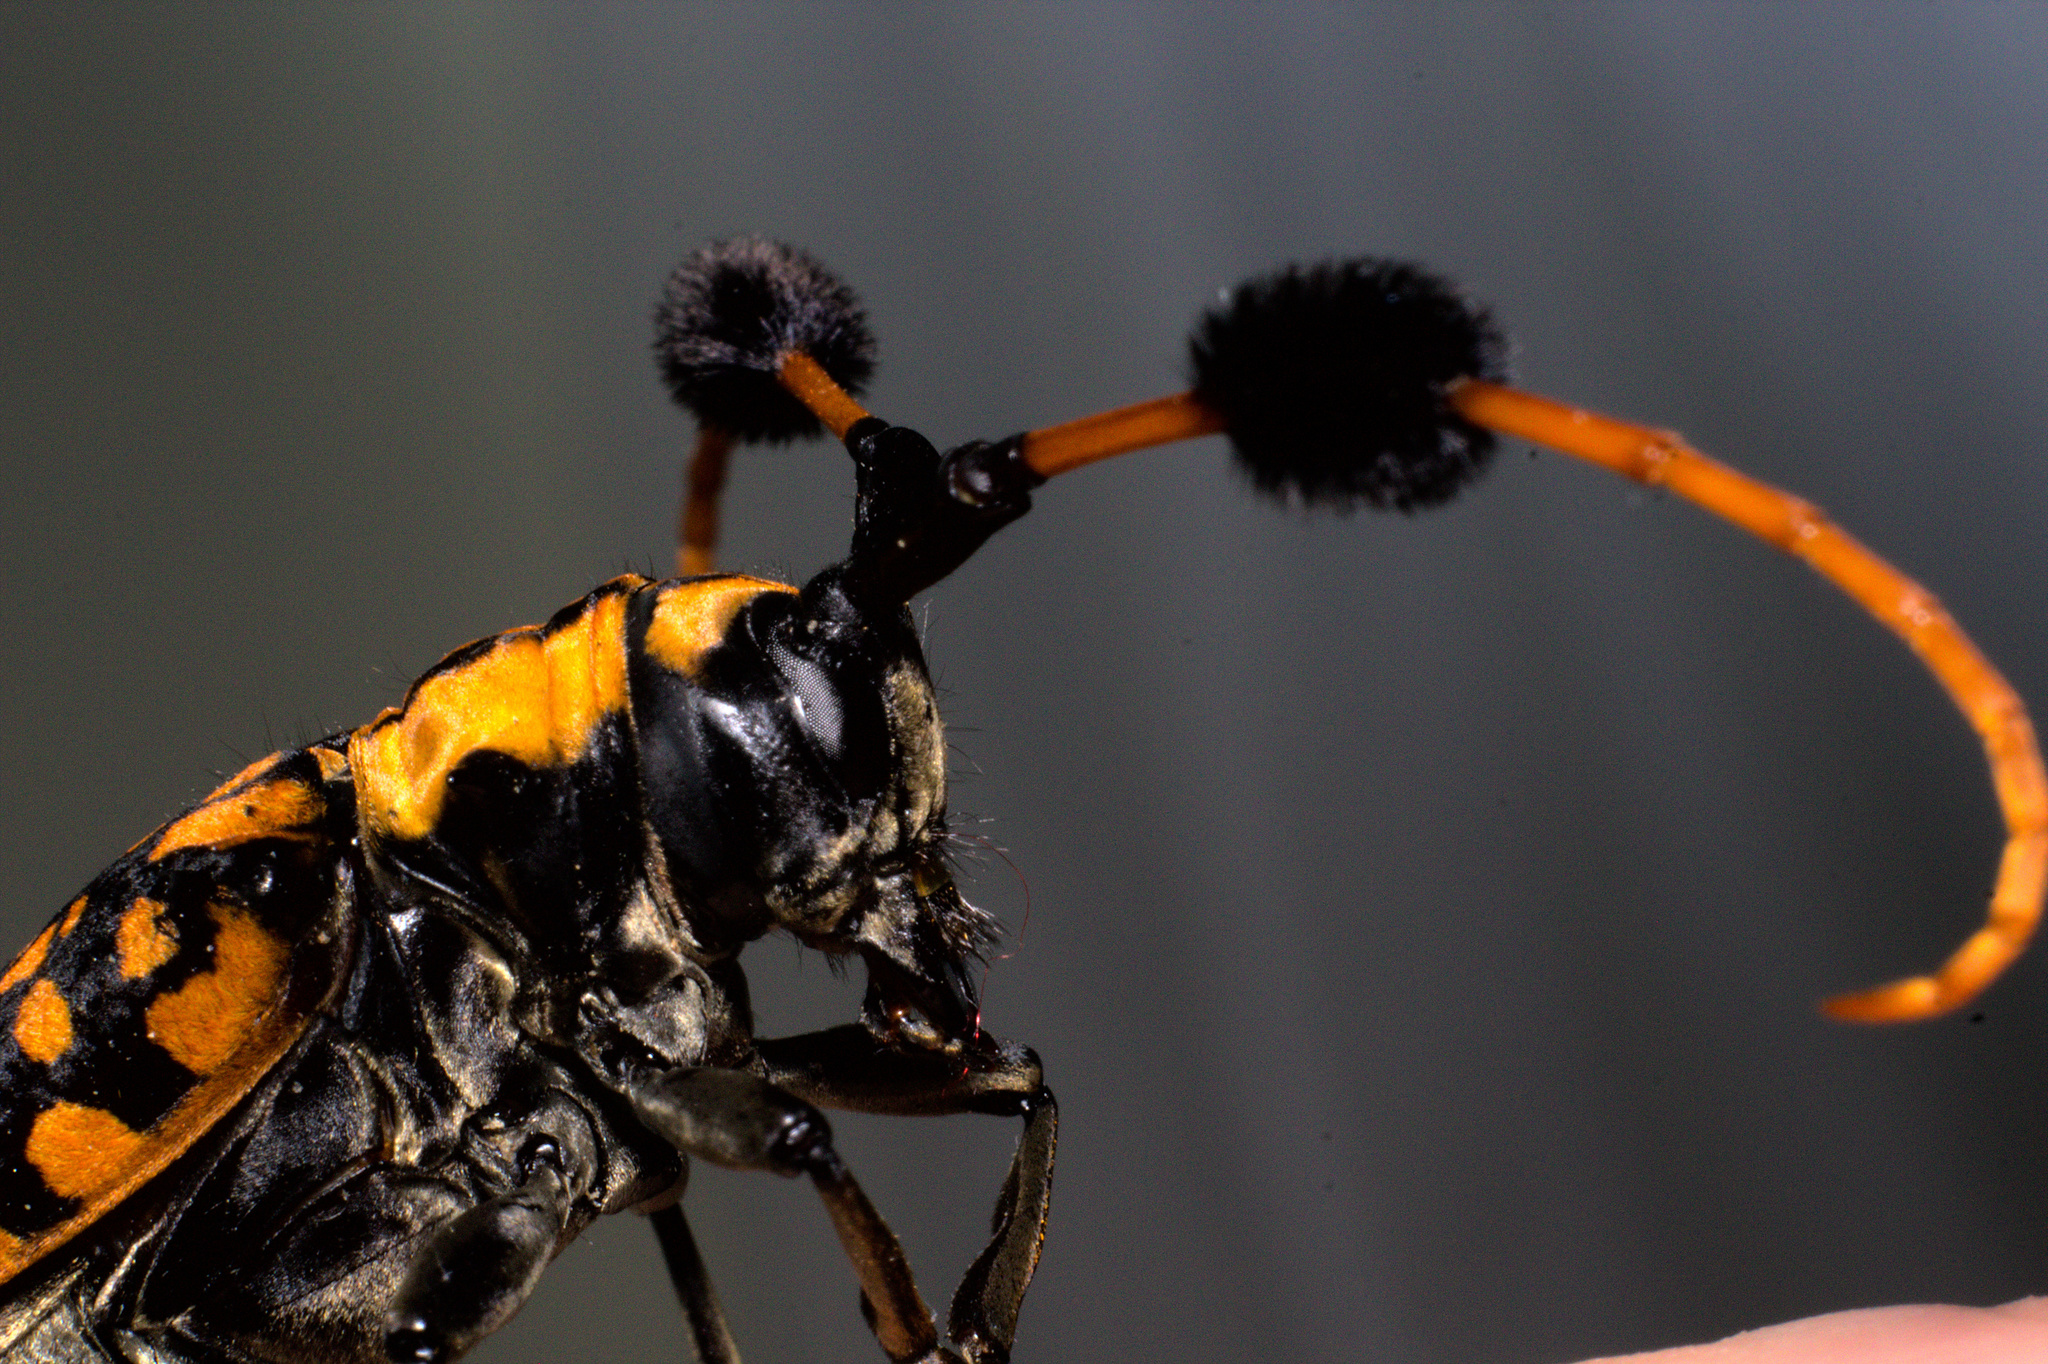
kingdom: Animalia
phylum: Arthropoda
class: Insecta
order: Coleoptera
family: Cerambycidae
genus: Aristobia
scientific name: Aristobia approximator
